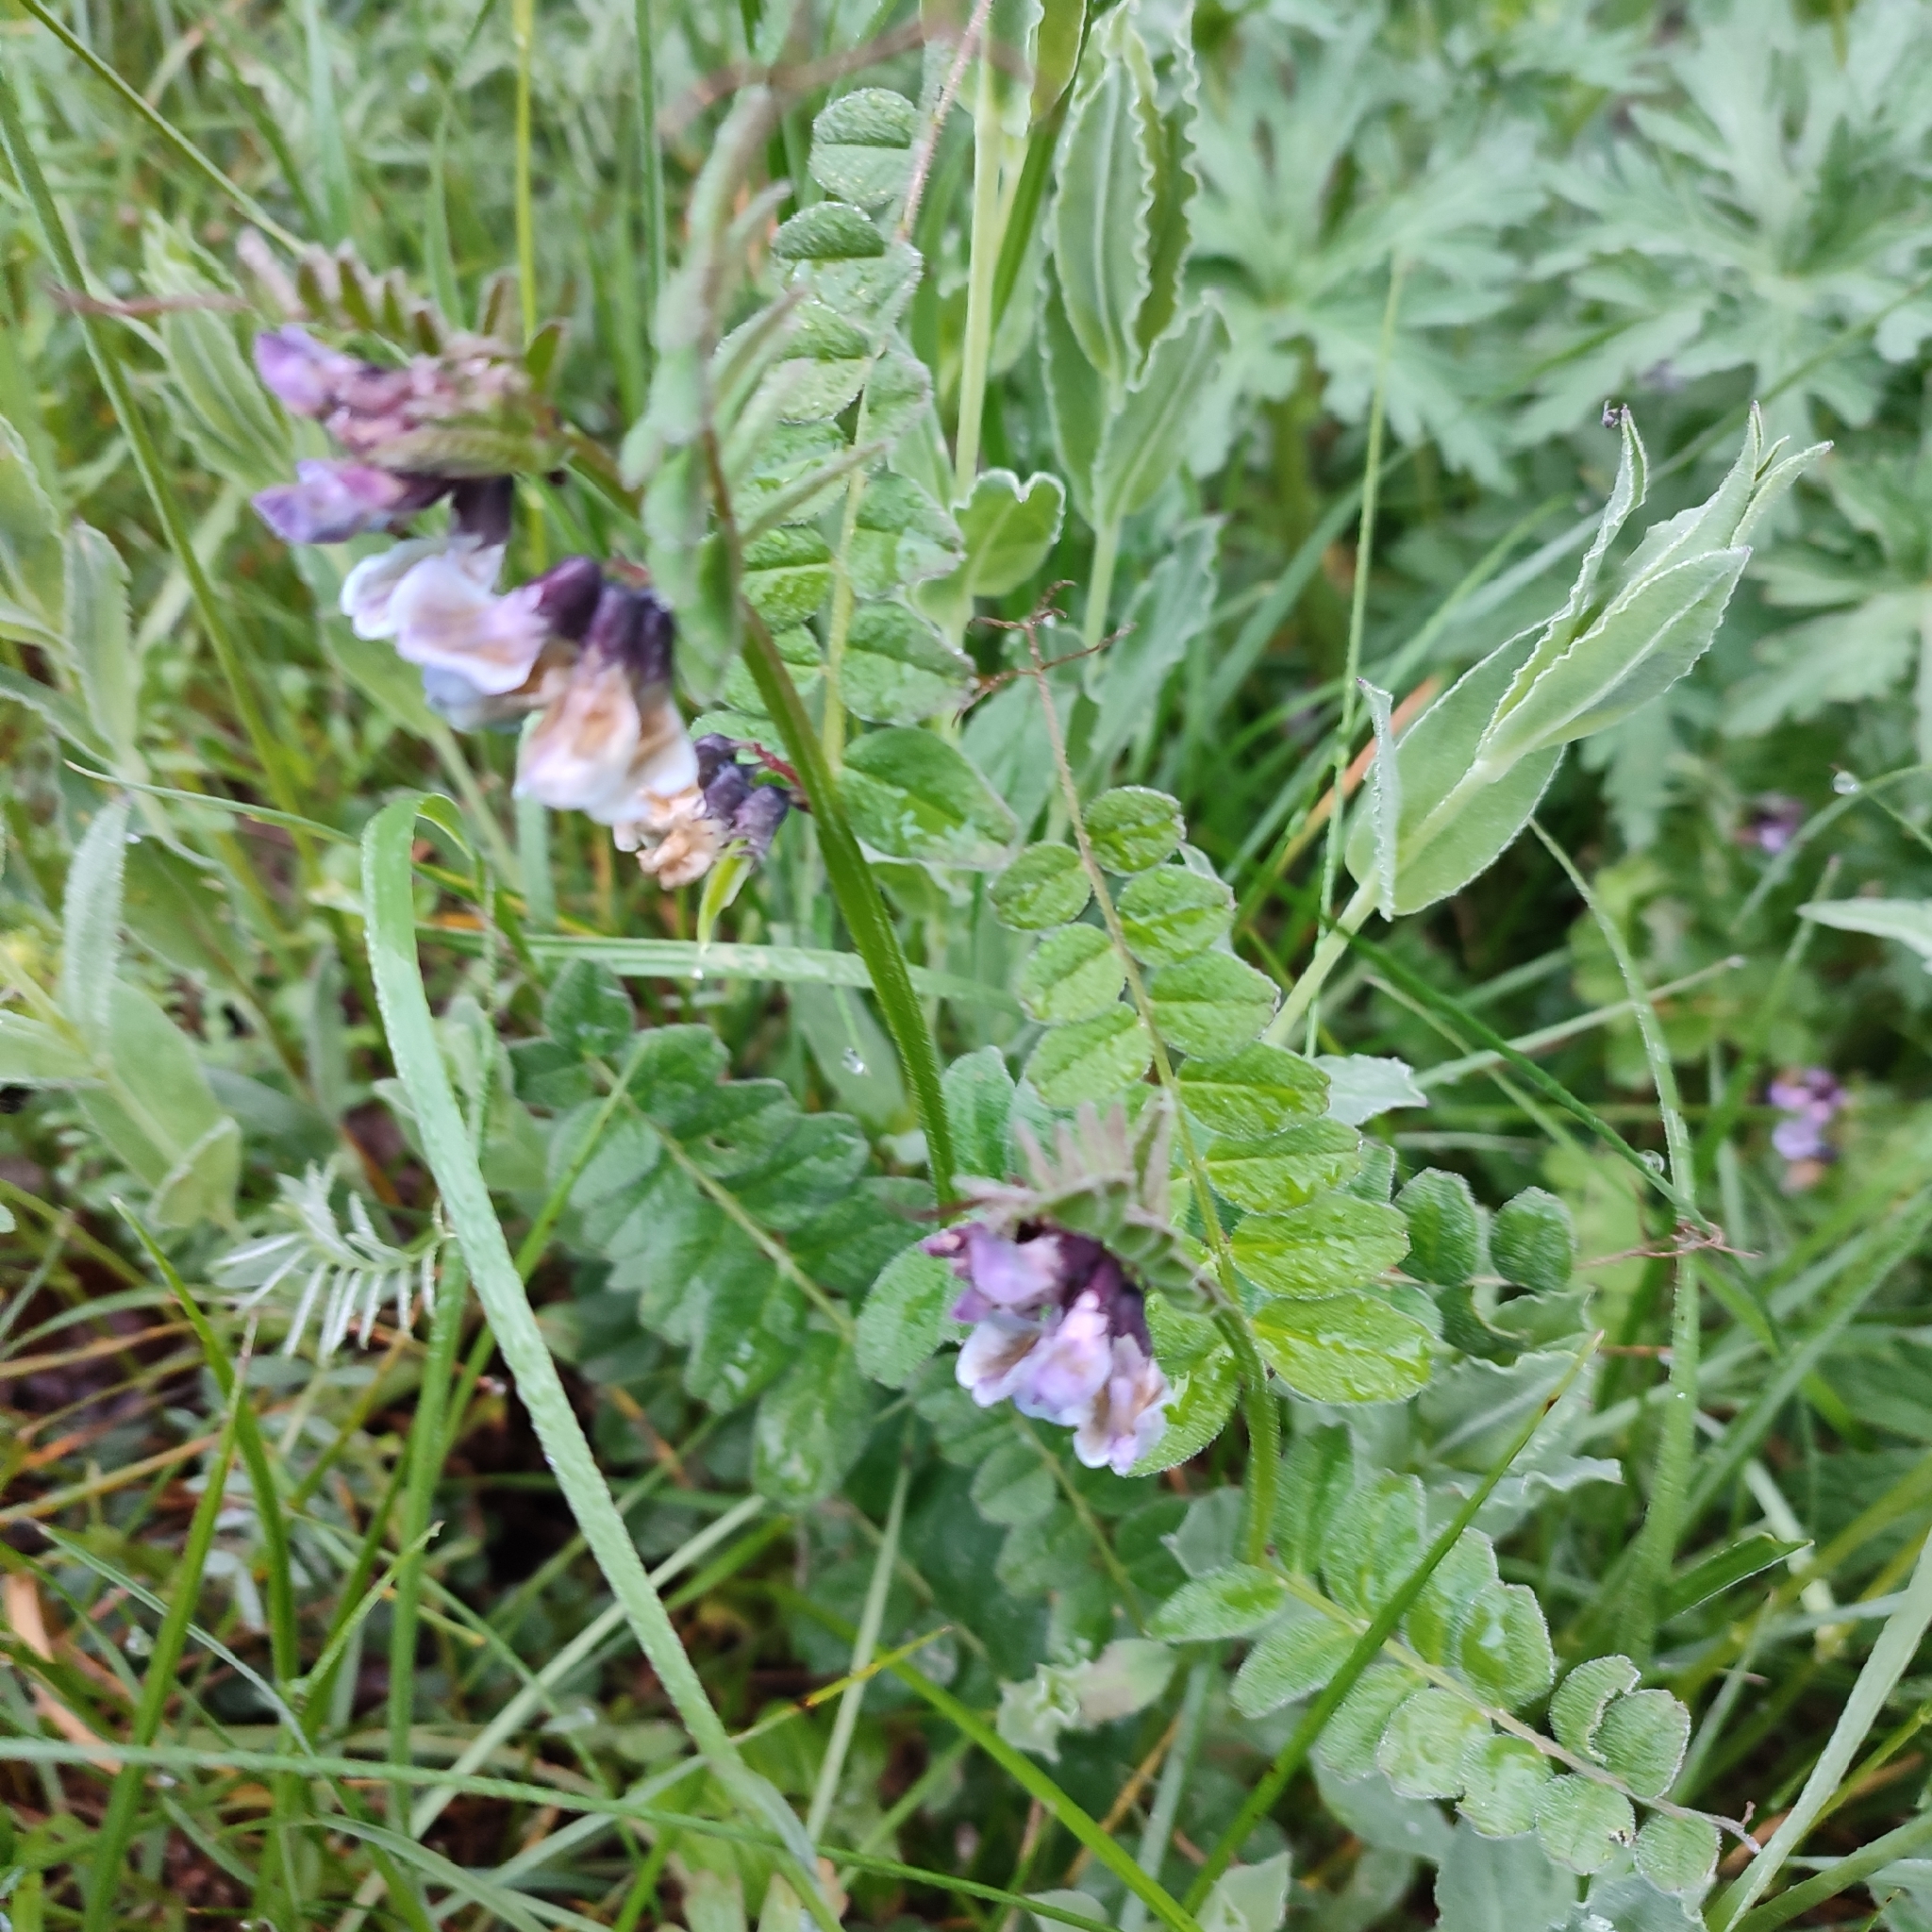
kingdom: Plantae
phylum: Tracheophyta
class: Magnoliopsida
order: Fabales
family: Fabaceae
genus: Vicia
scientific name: Vicia sepium
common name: Bush vetch
